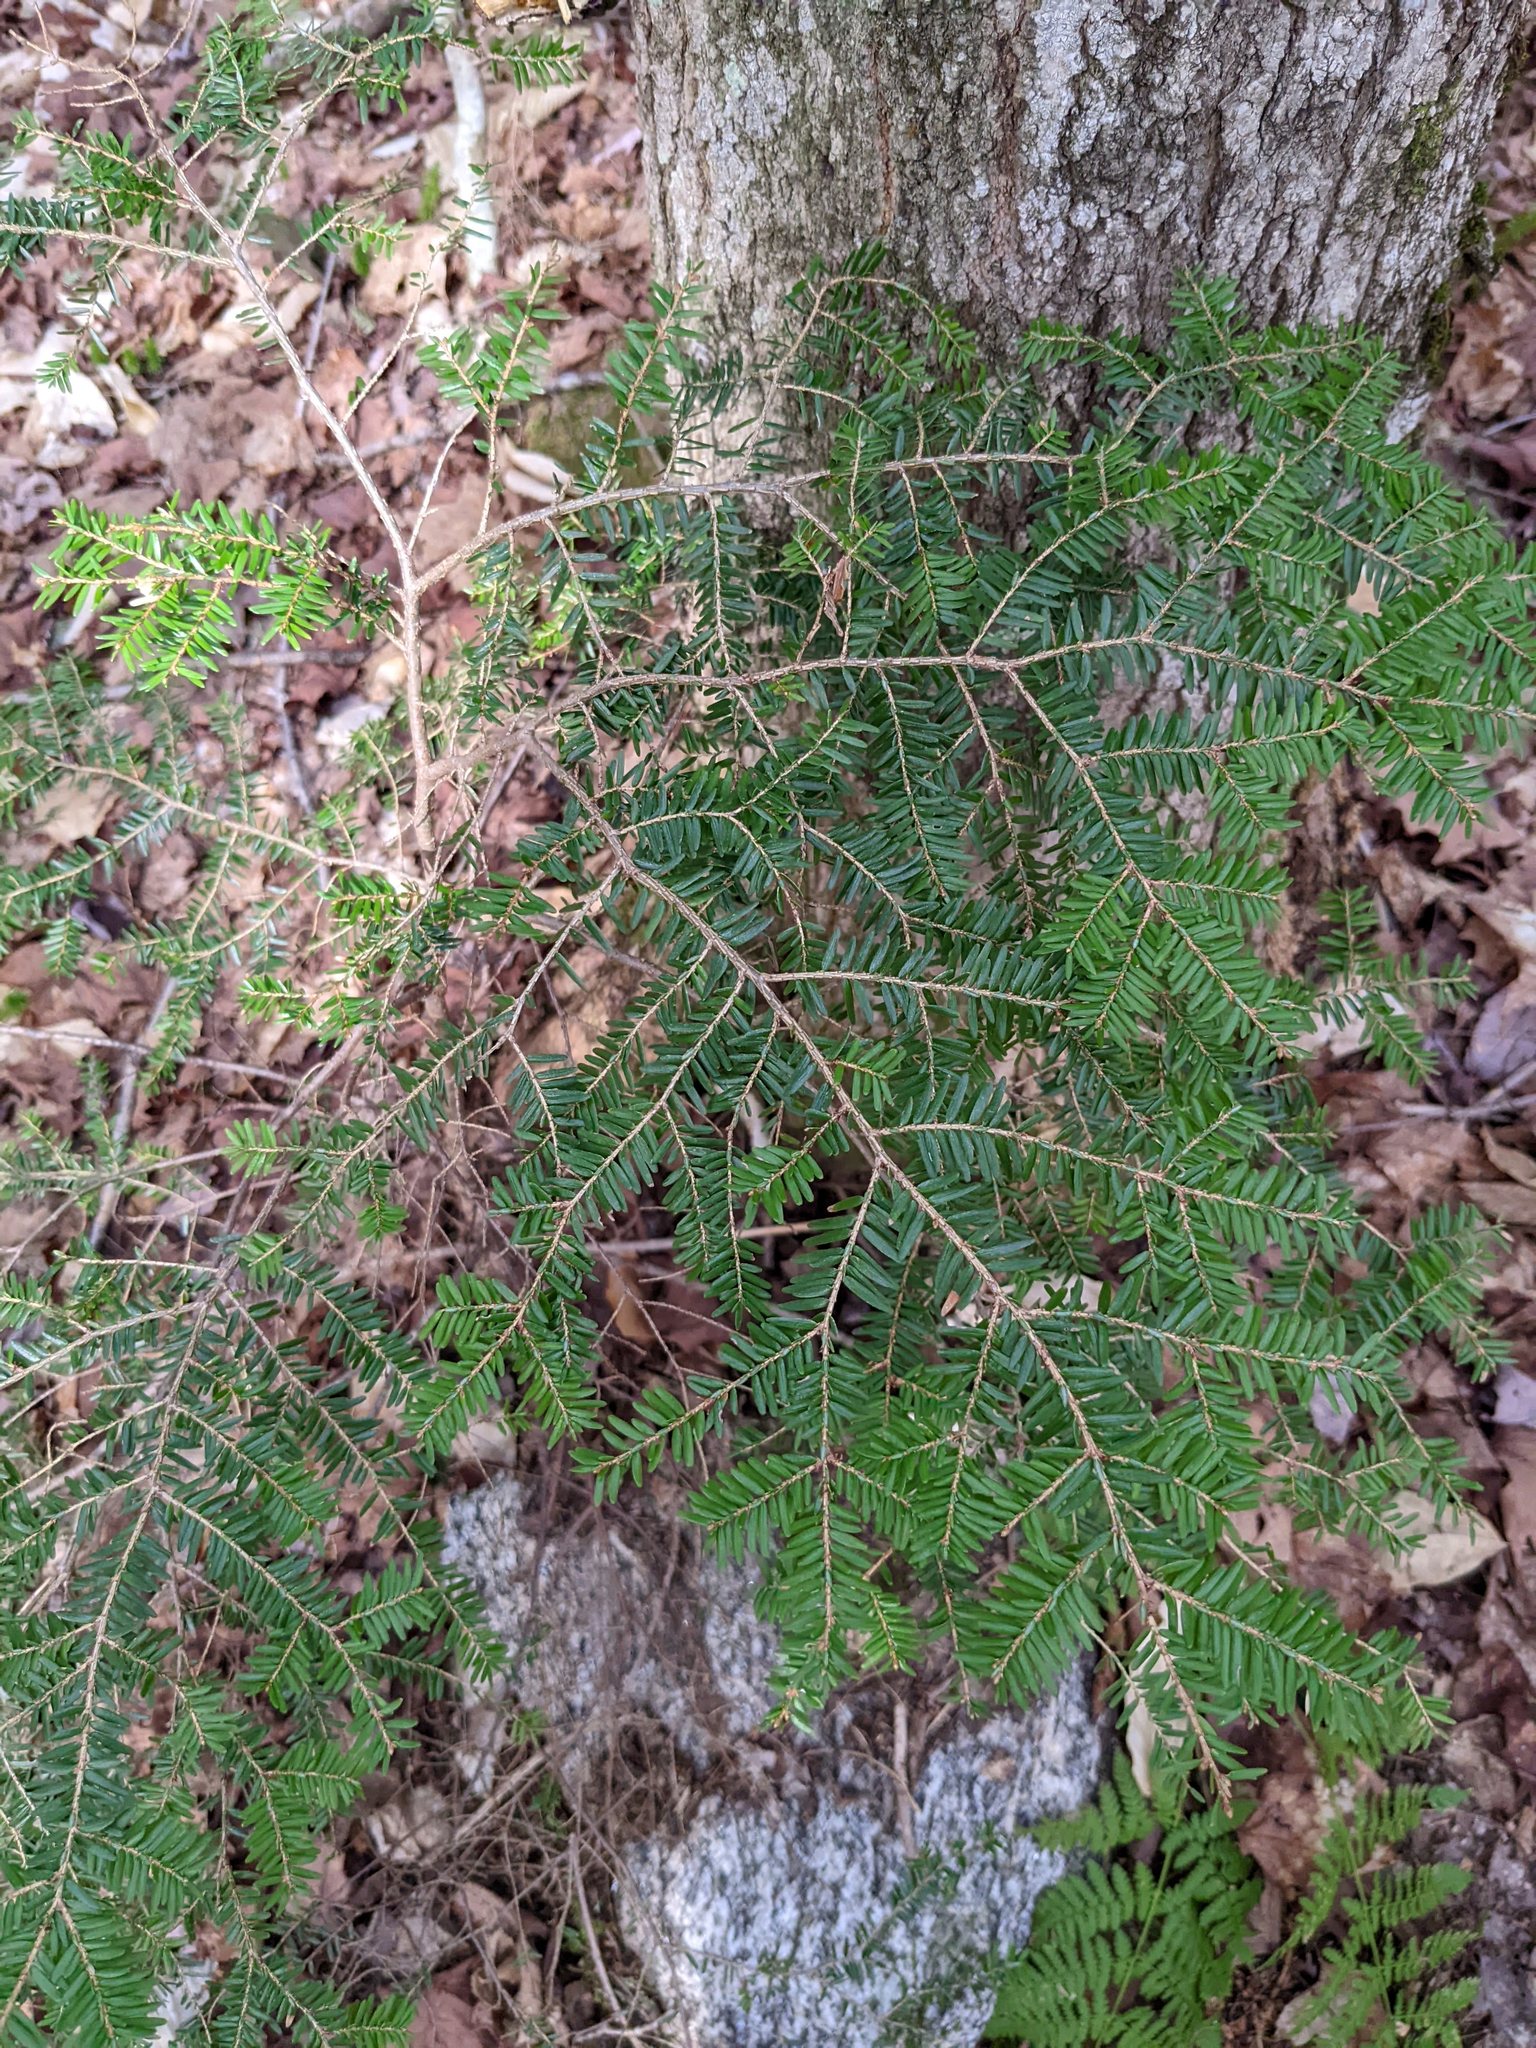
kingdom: Plantae
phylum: Tracheophyta
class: Pinopsida
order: Pinales
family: Pinaceae
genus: Tsuga
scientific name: Tsuga canadensis
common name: Eastern hemlock
